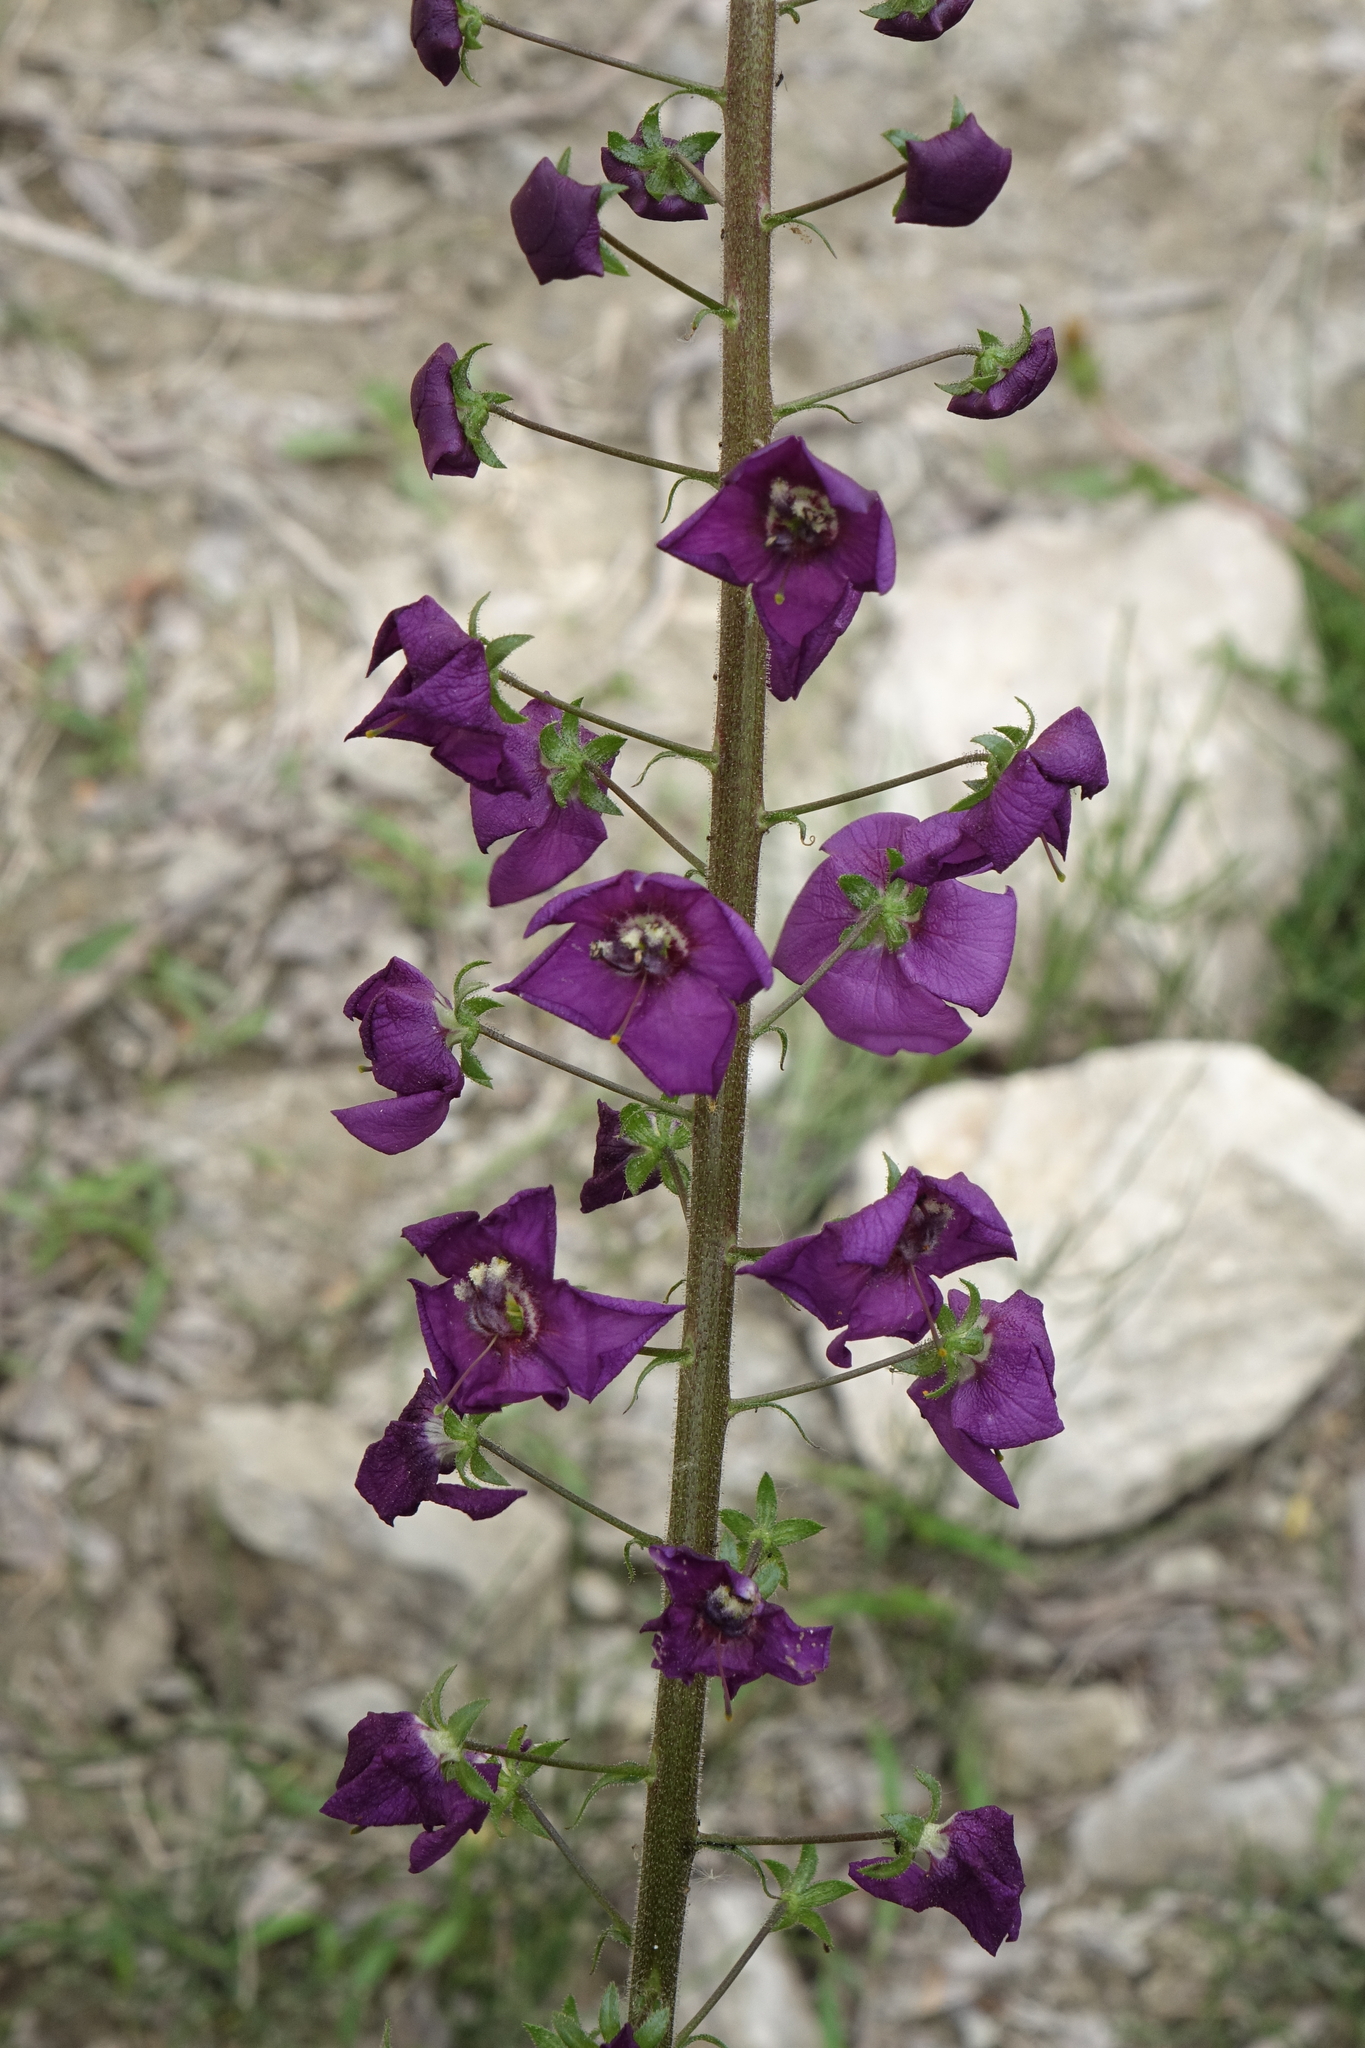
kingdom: Plantae
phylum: Tracheophyta
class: Magnoliopsida
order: Lamiales
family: Scrophulariaceae
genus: Verbascum
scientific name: Verbascum phoeniceum
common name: Purple mullein
